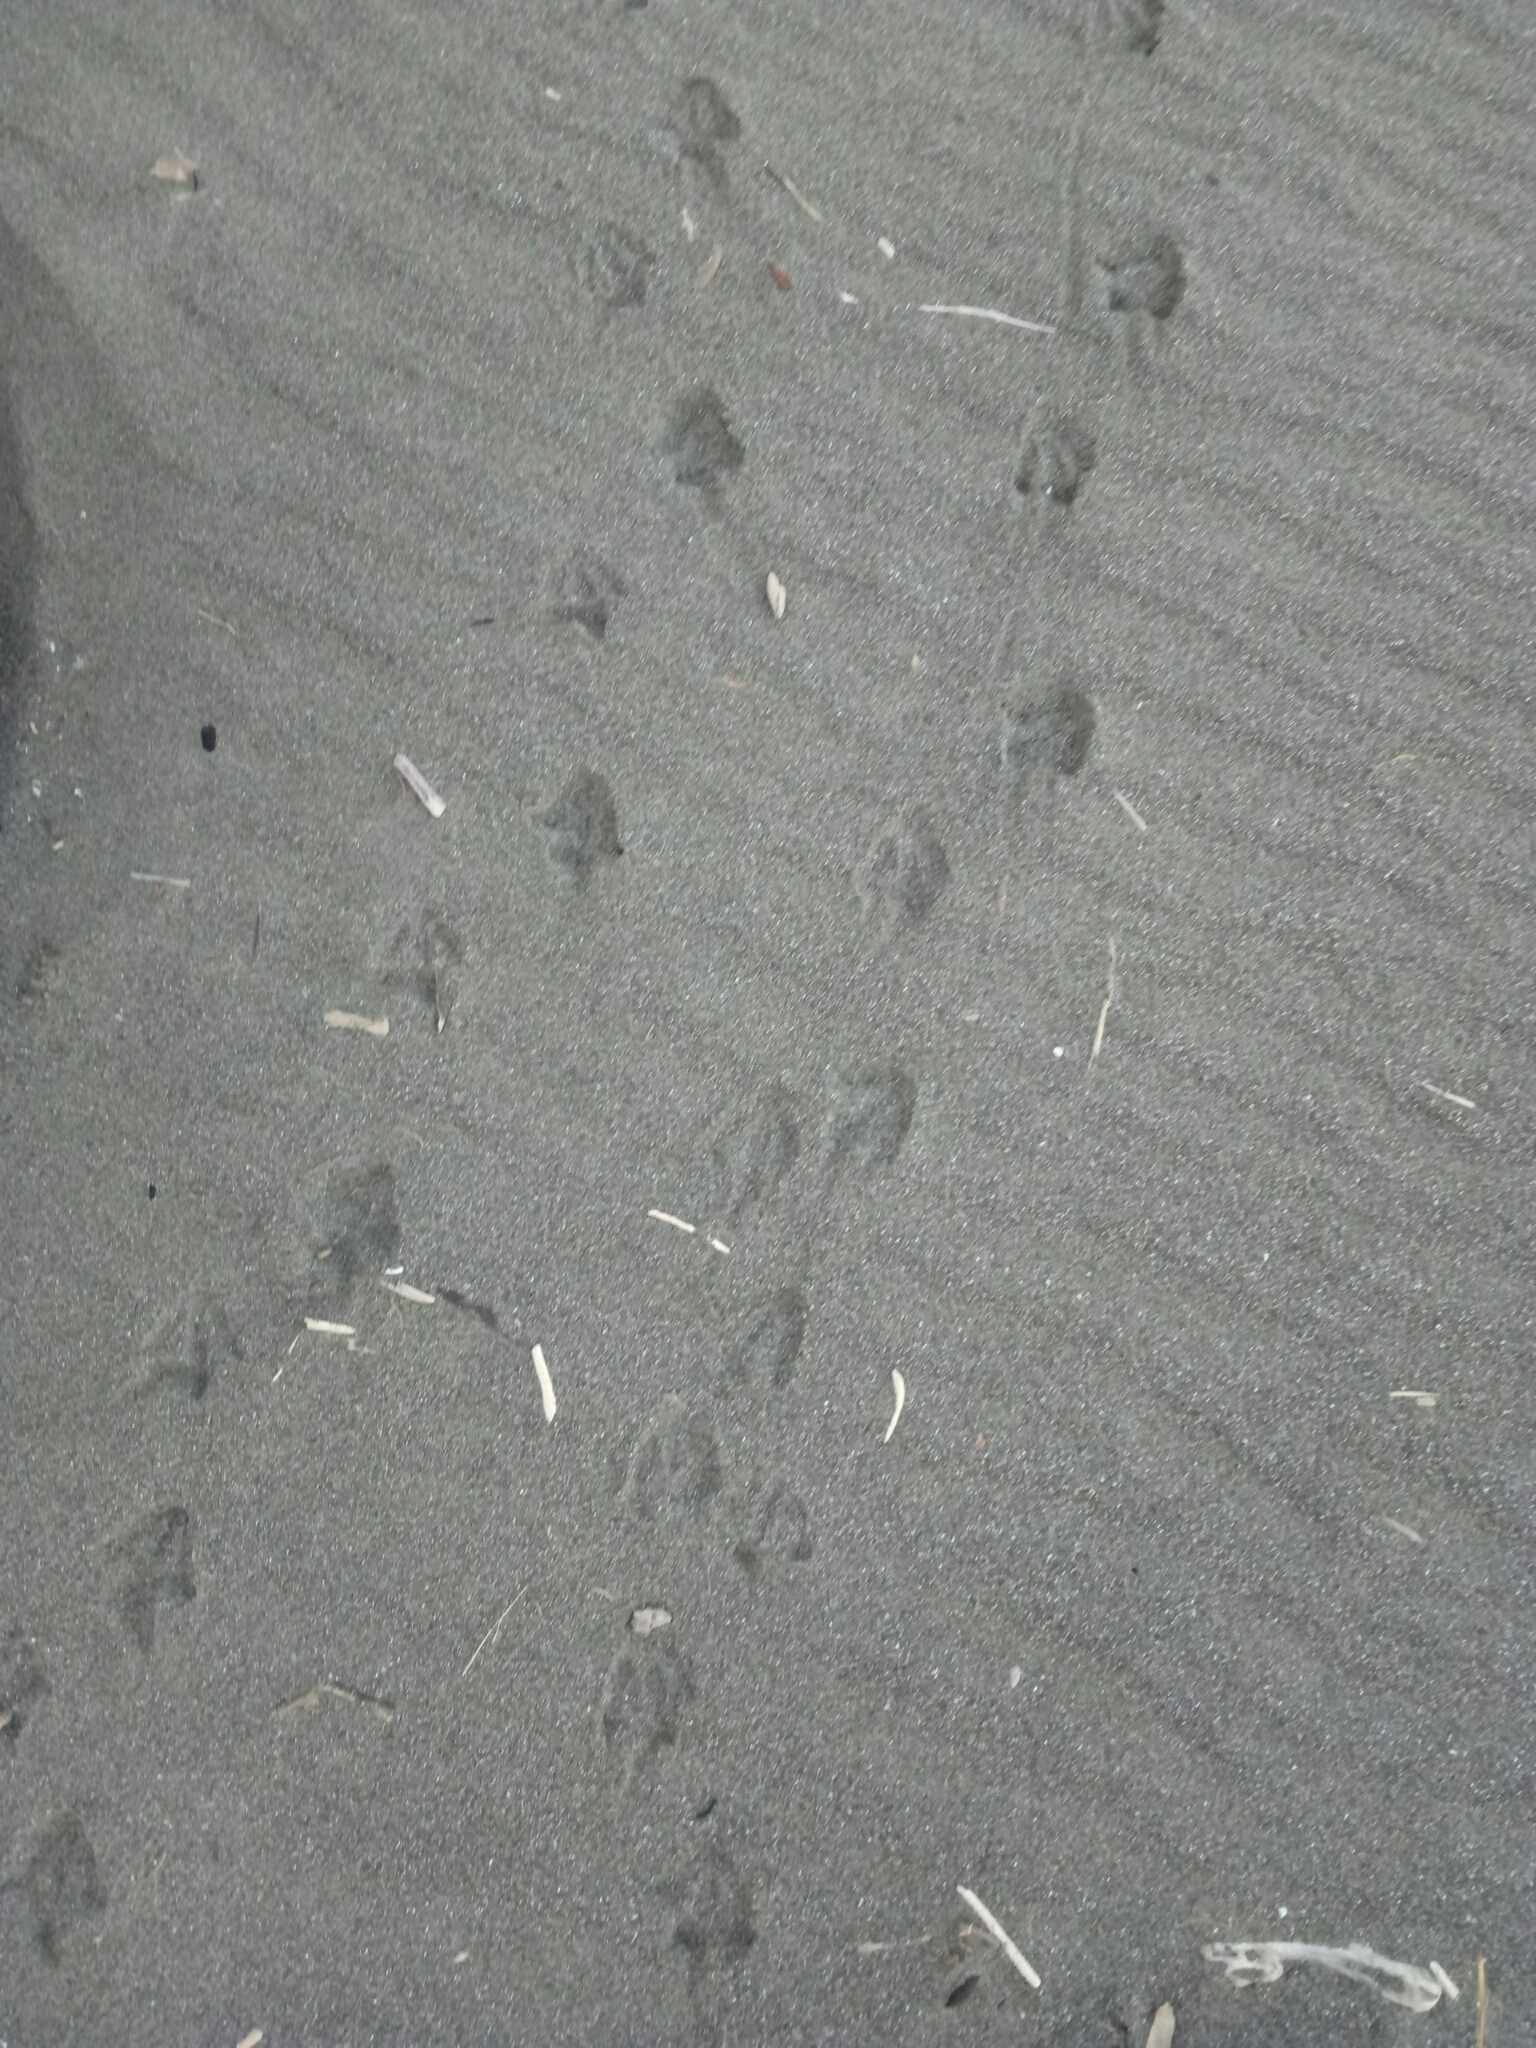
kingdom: Animalia
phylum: Chordata
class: Aves
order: Sphenisciformes
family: Spheniscidae
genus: Eudyptula
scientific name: Eudyptula minor
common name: Little penguin
